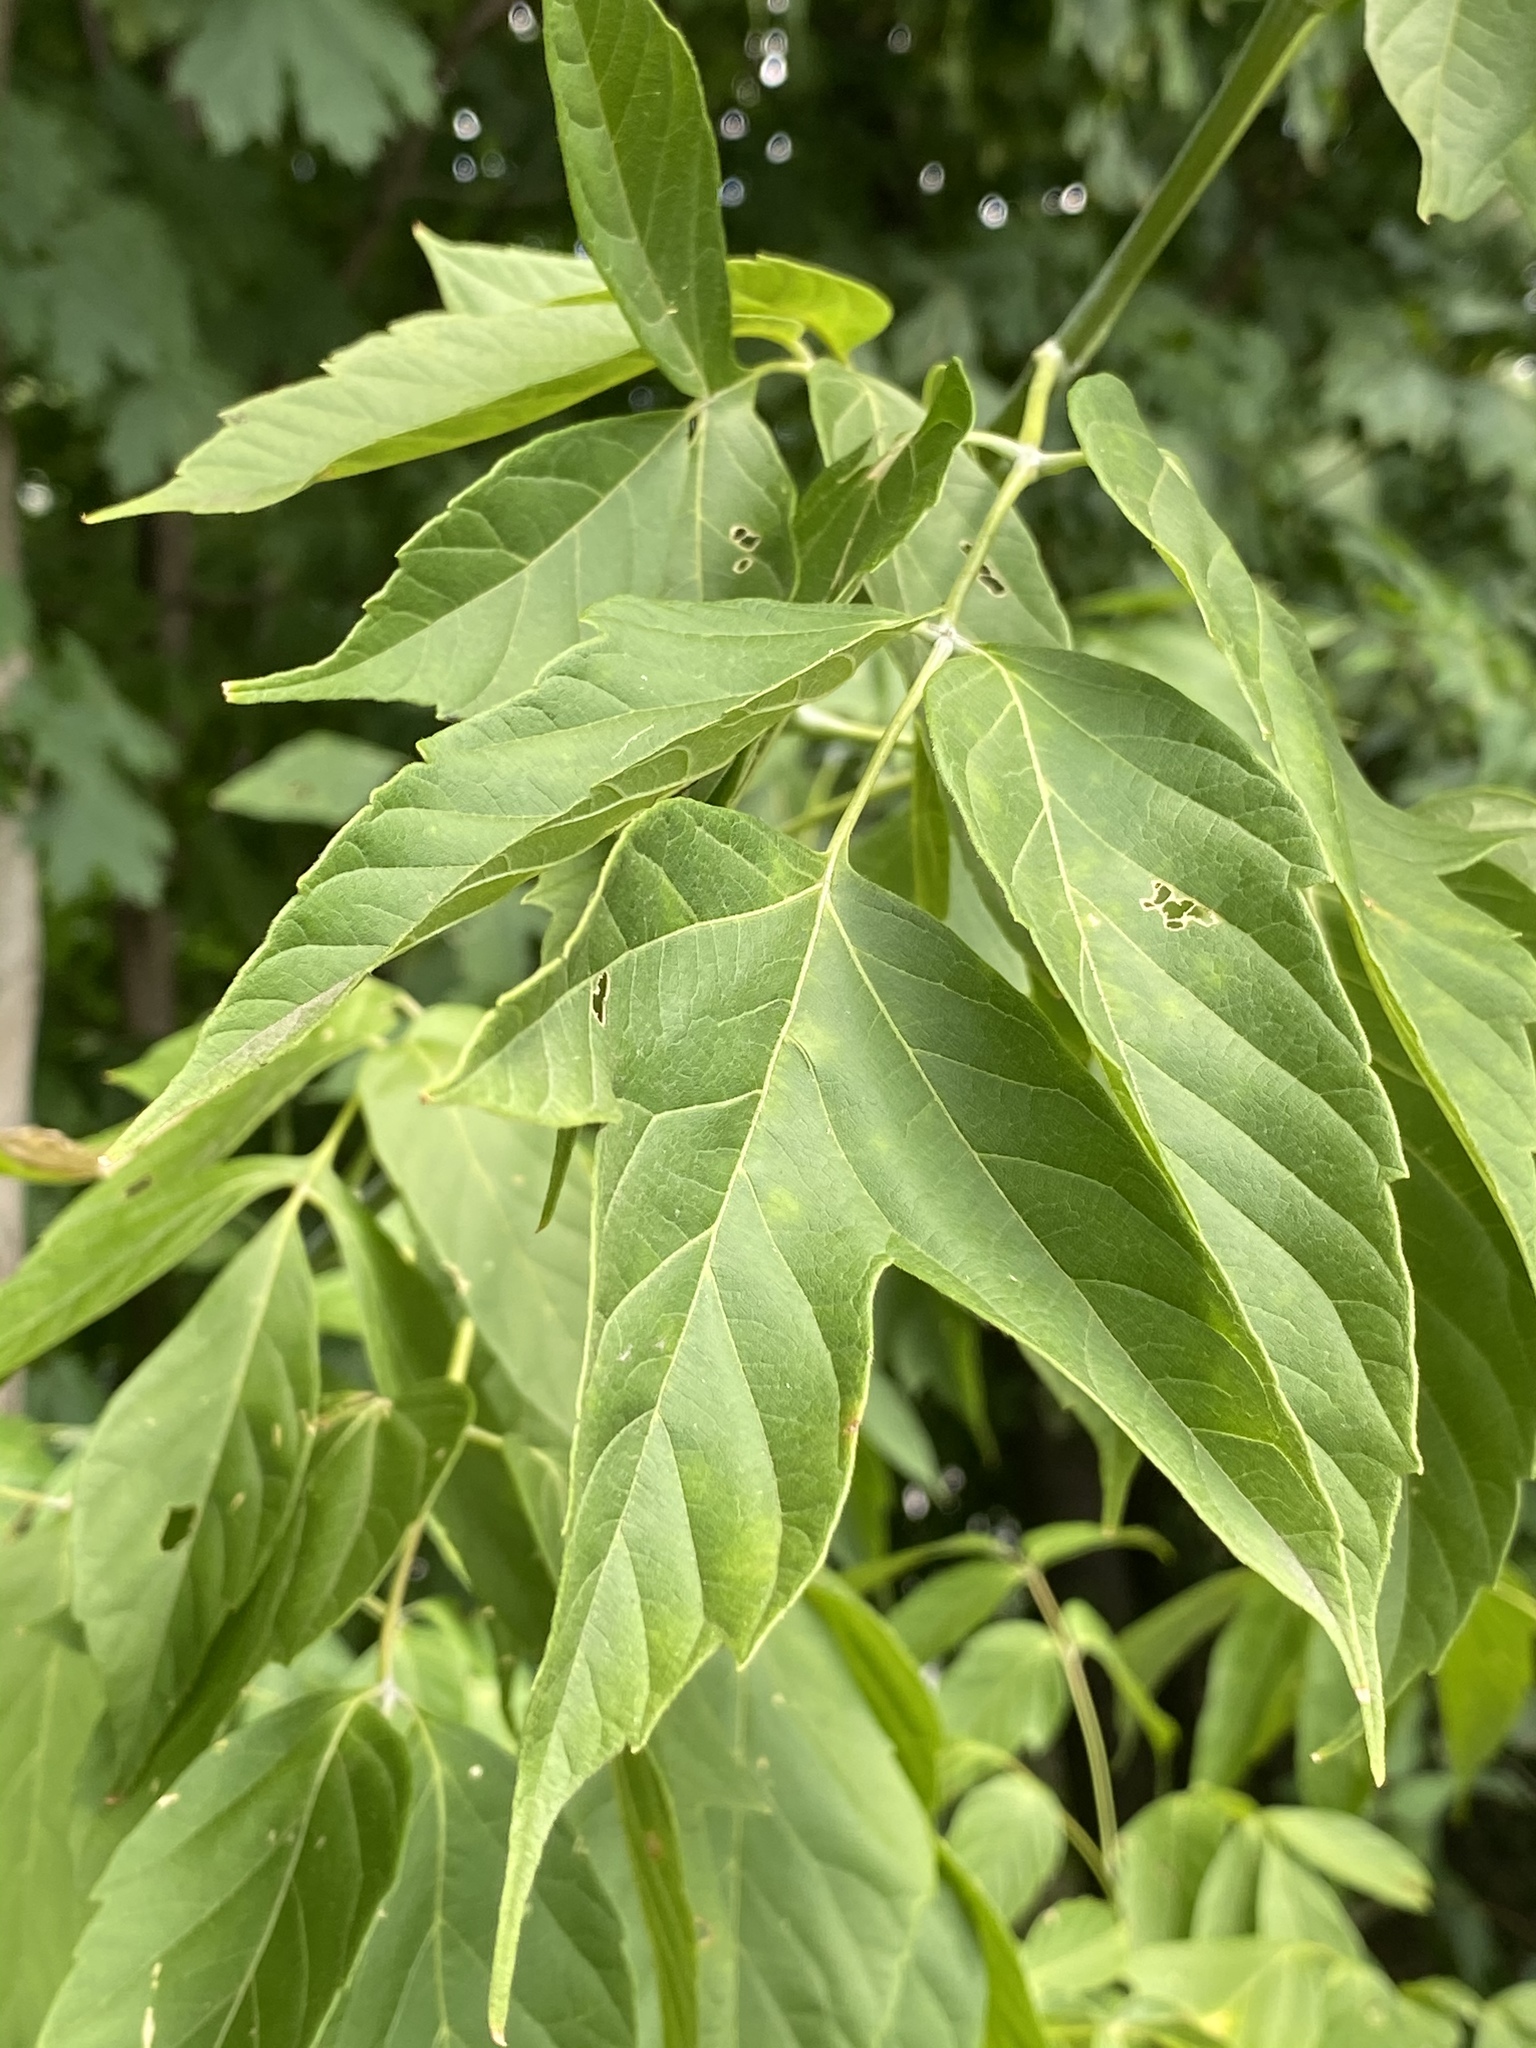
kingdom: Plantae
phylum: Tracheophyta
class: Magnoliopsida
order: Sapindales
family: Sapindaceae
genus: Acer
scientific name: Acer negundo
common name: Ashleaf maple
